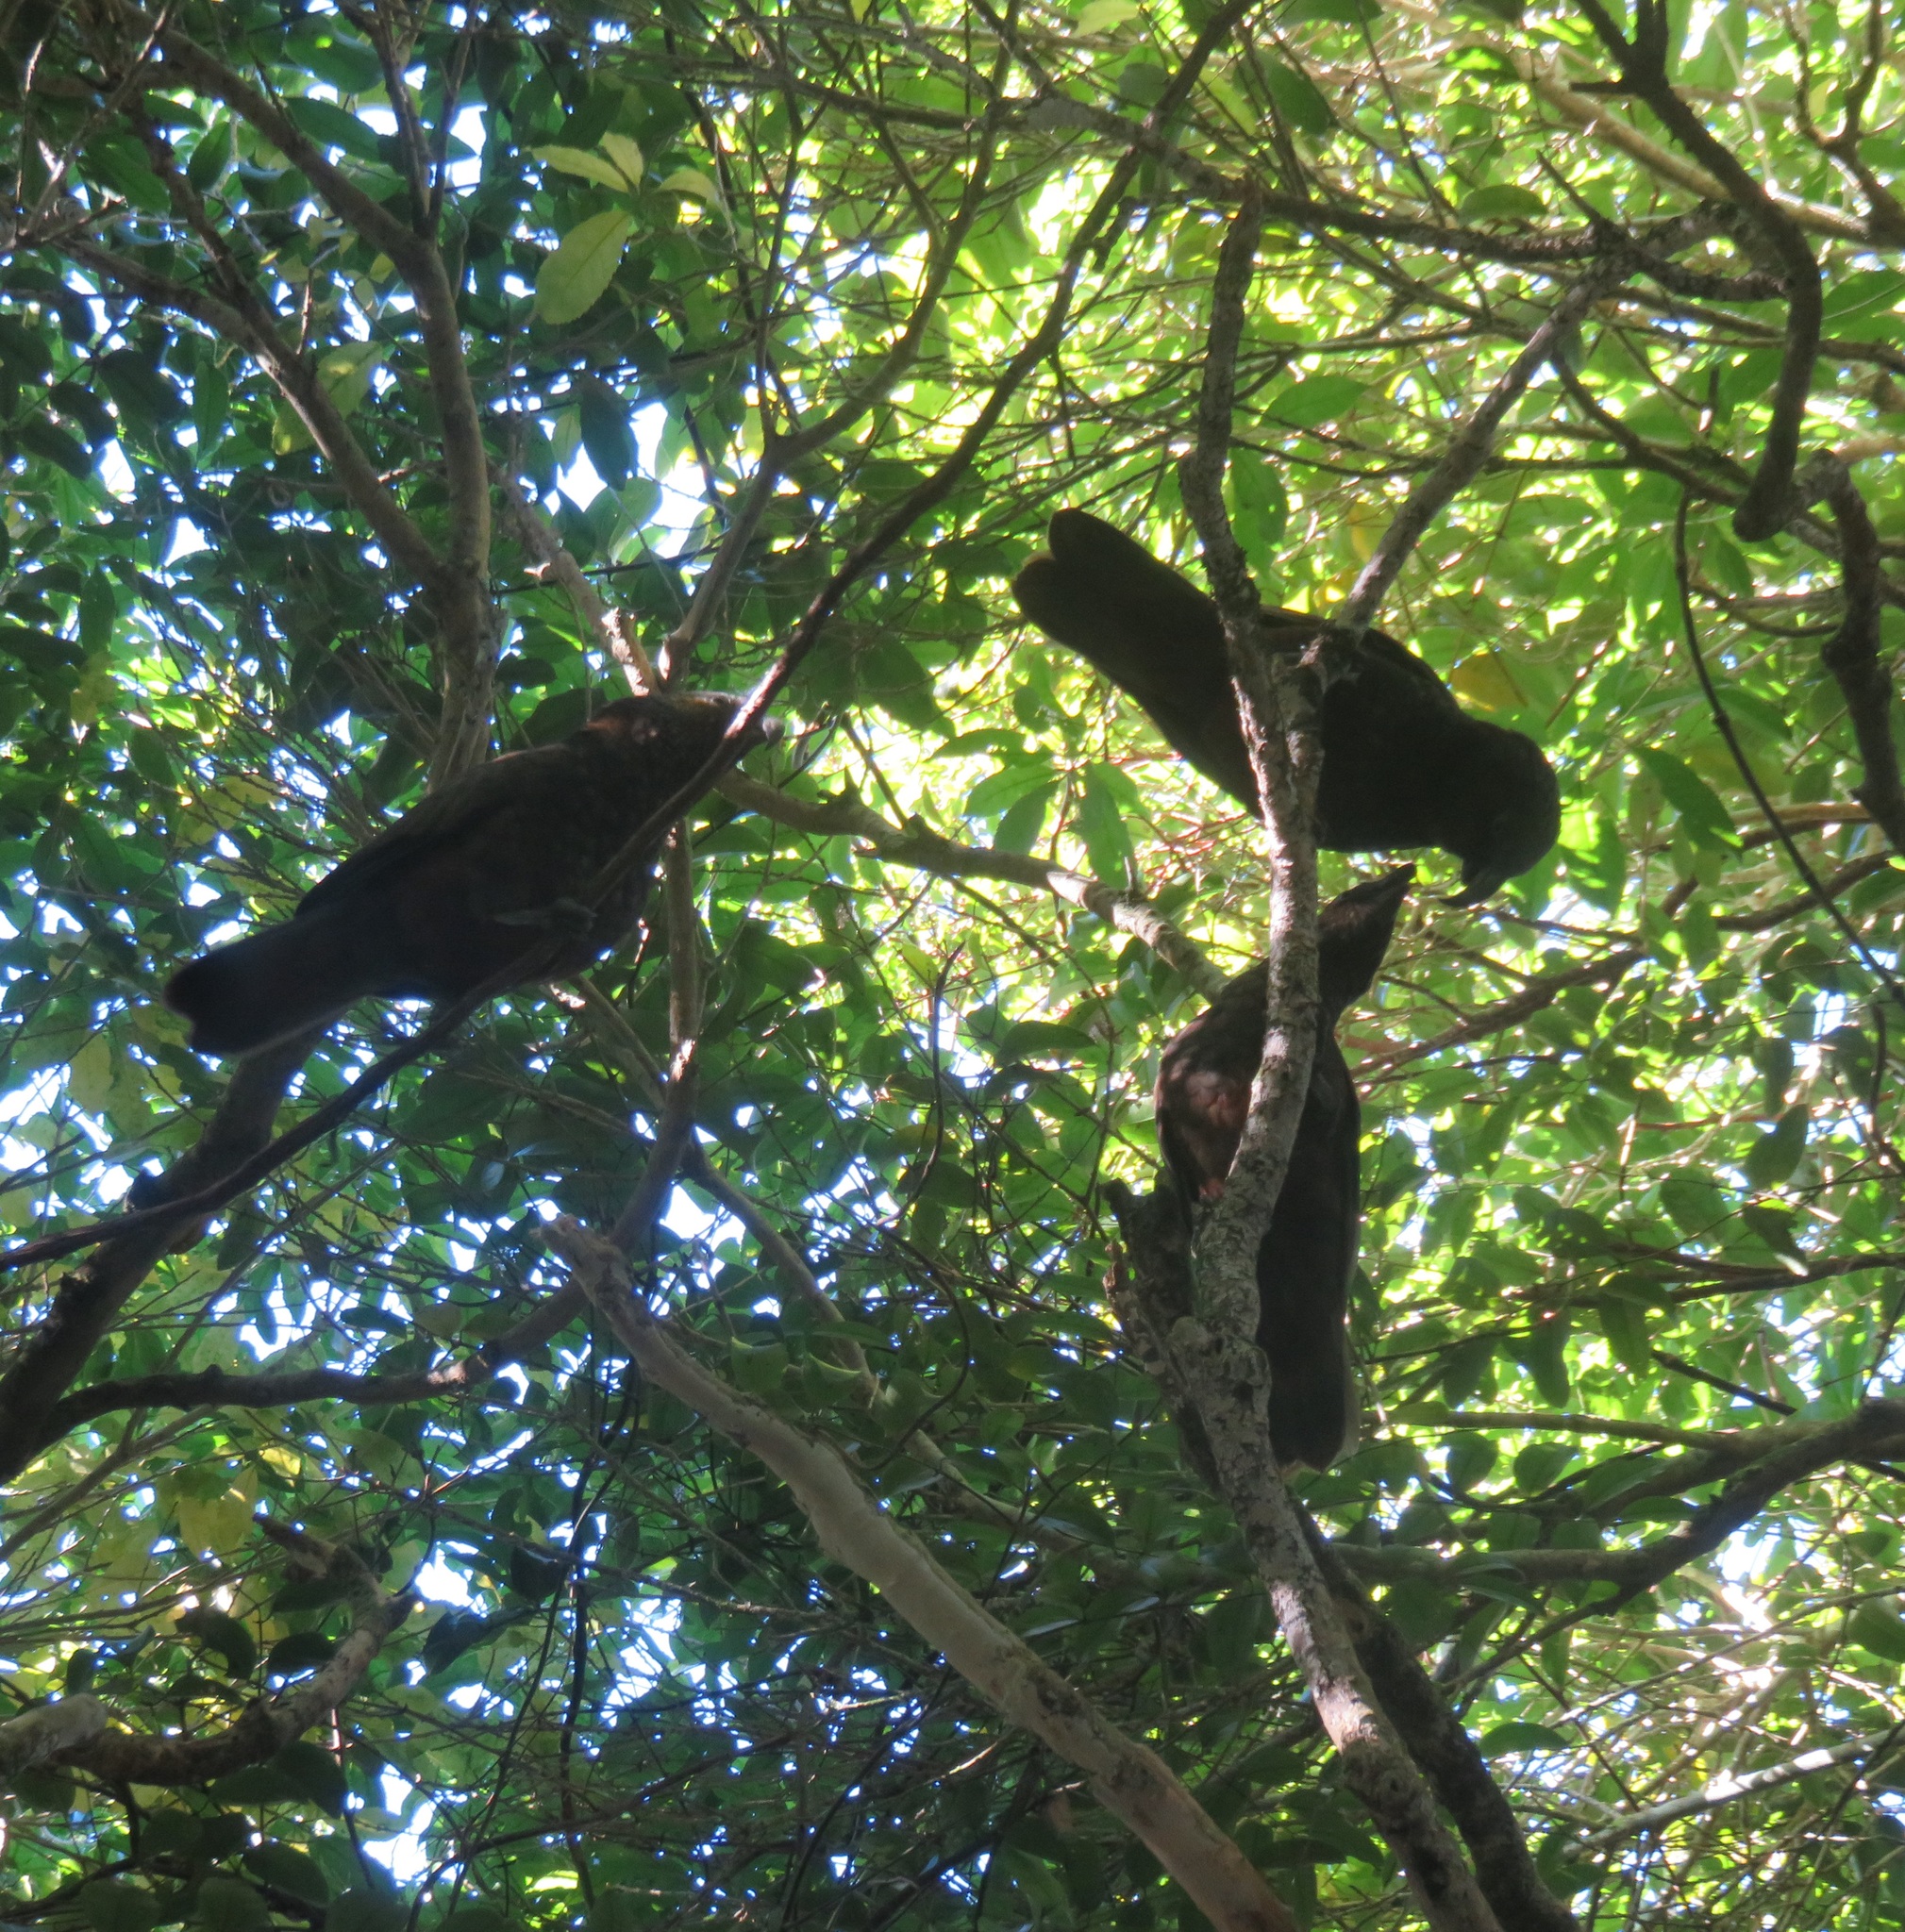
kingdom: Animalia
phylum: Chordata
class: Aves
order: Psittaciformes
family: Psittacidae
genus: Nestor
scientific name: Nestor meridionalis
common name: New zealand kaka
